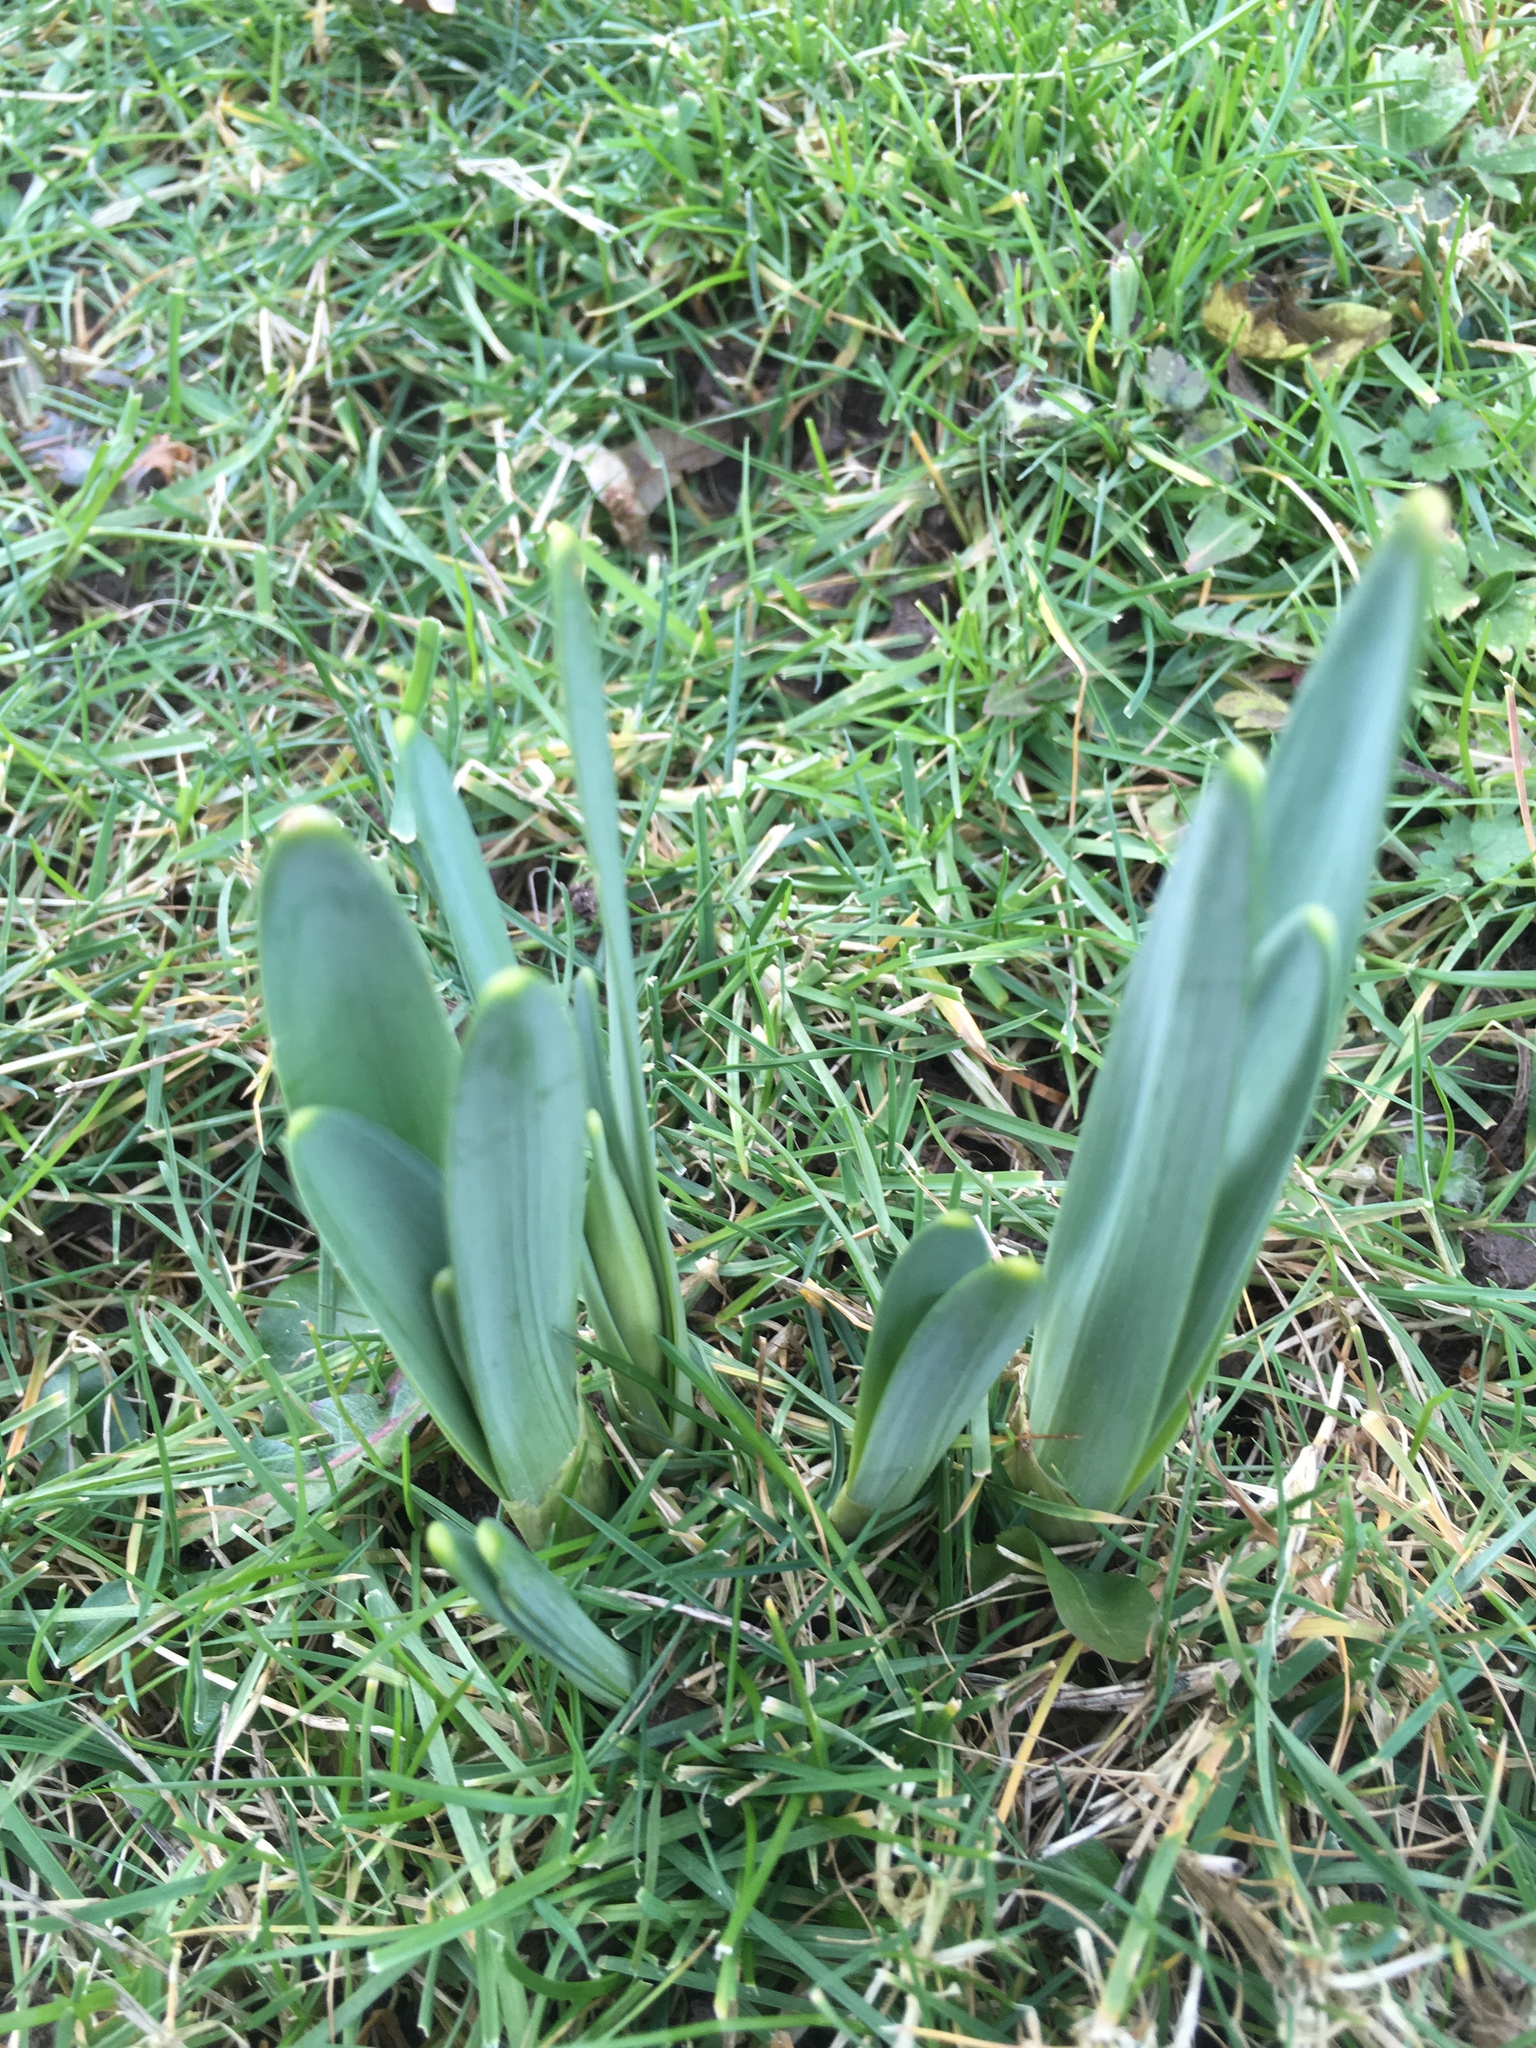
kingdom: Plantae
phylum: Tracheophyta
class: Liliopsida
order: Asparagales
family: Amaryllidaceae
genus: Narcissus
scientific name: Narcissus pseudonarcissus
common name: Daffodil
